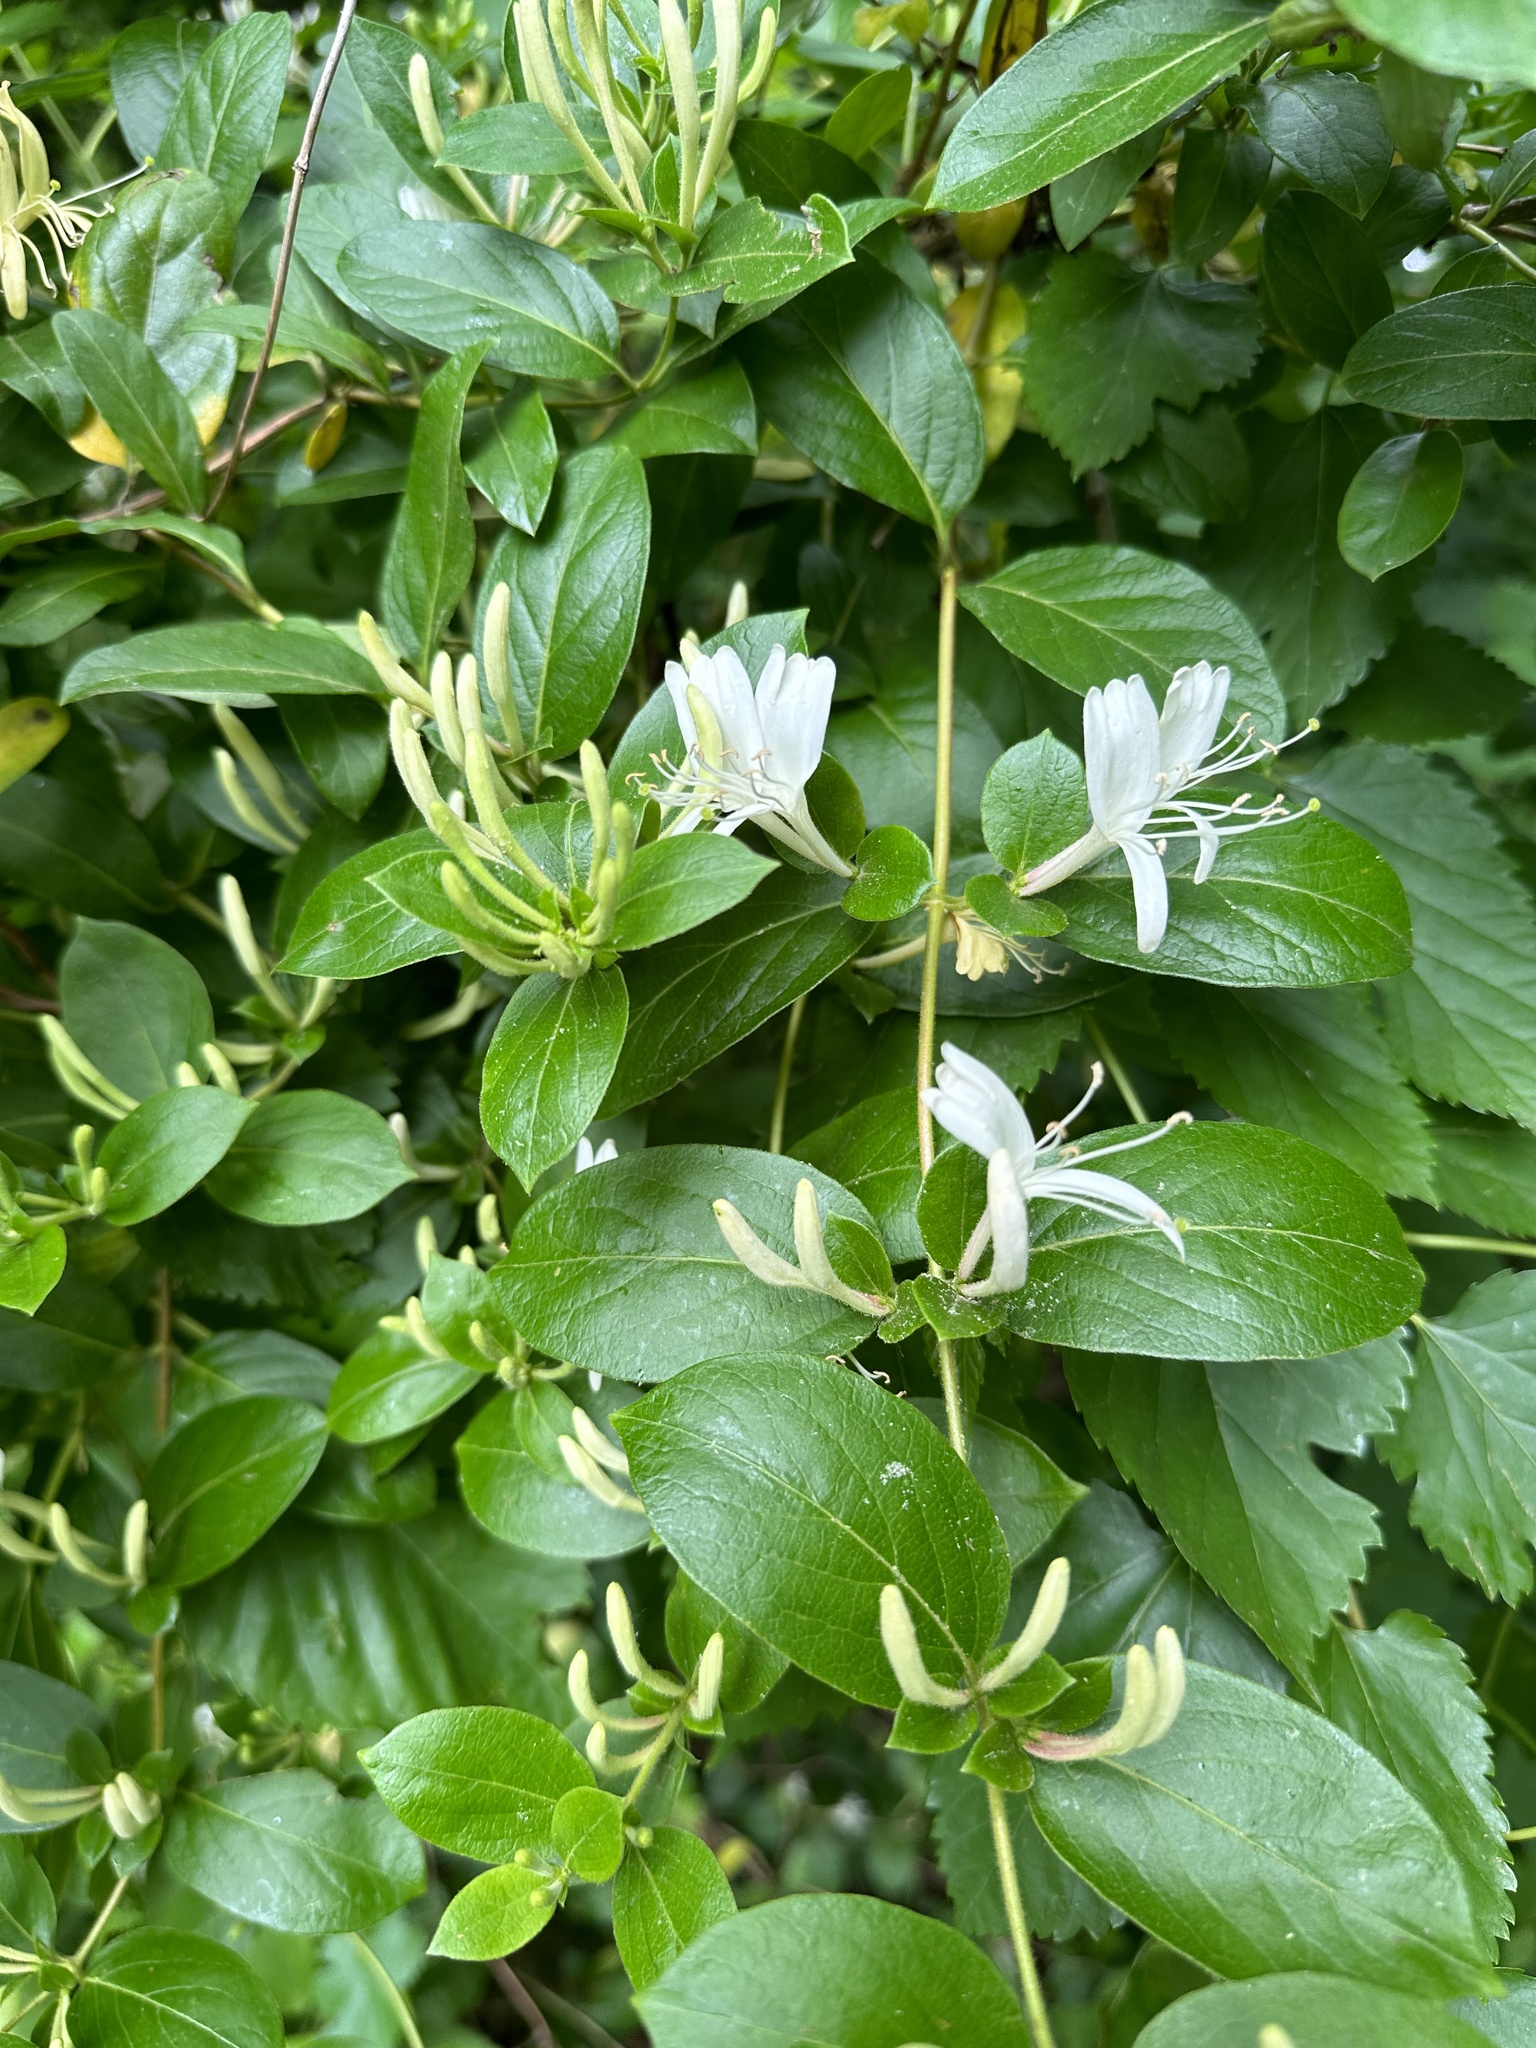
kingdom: Plantae
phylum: Tracheophyta
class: Magnoliopsida
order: Dipsacales
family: Caprifoliaceae
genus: Lonicera
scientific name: Lonicera japonica
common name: Japanese honeysuckle
